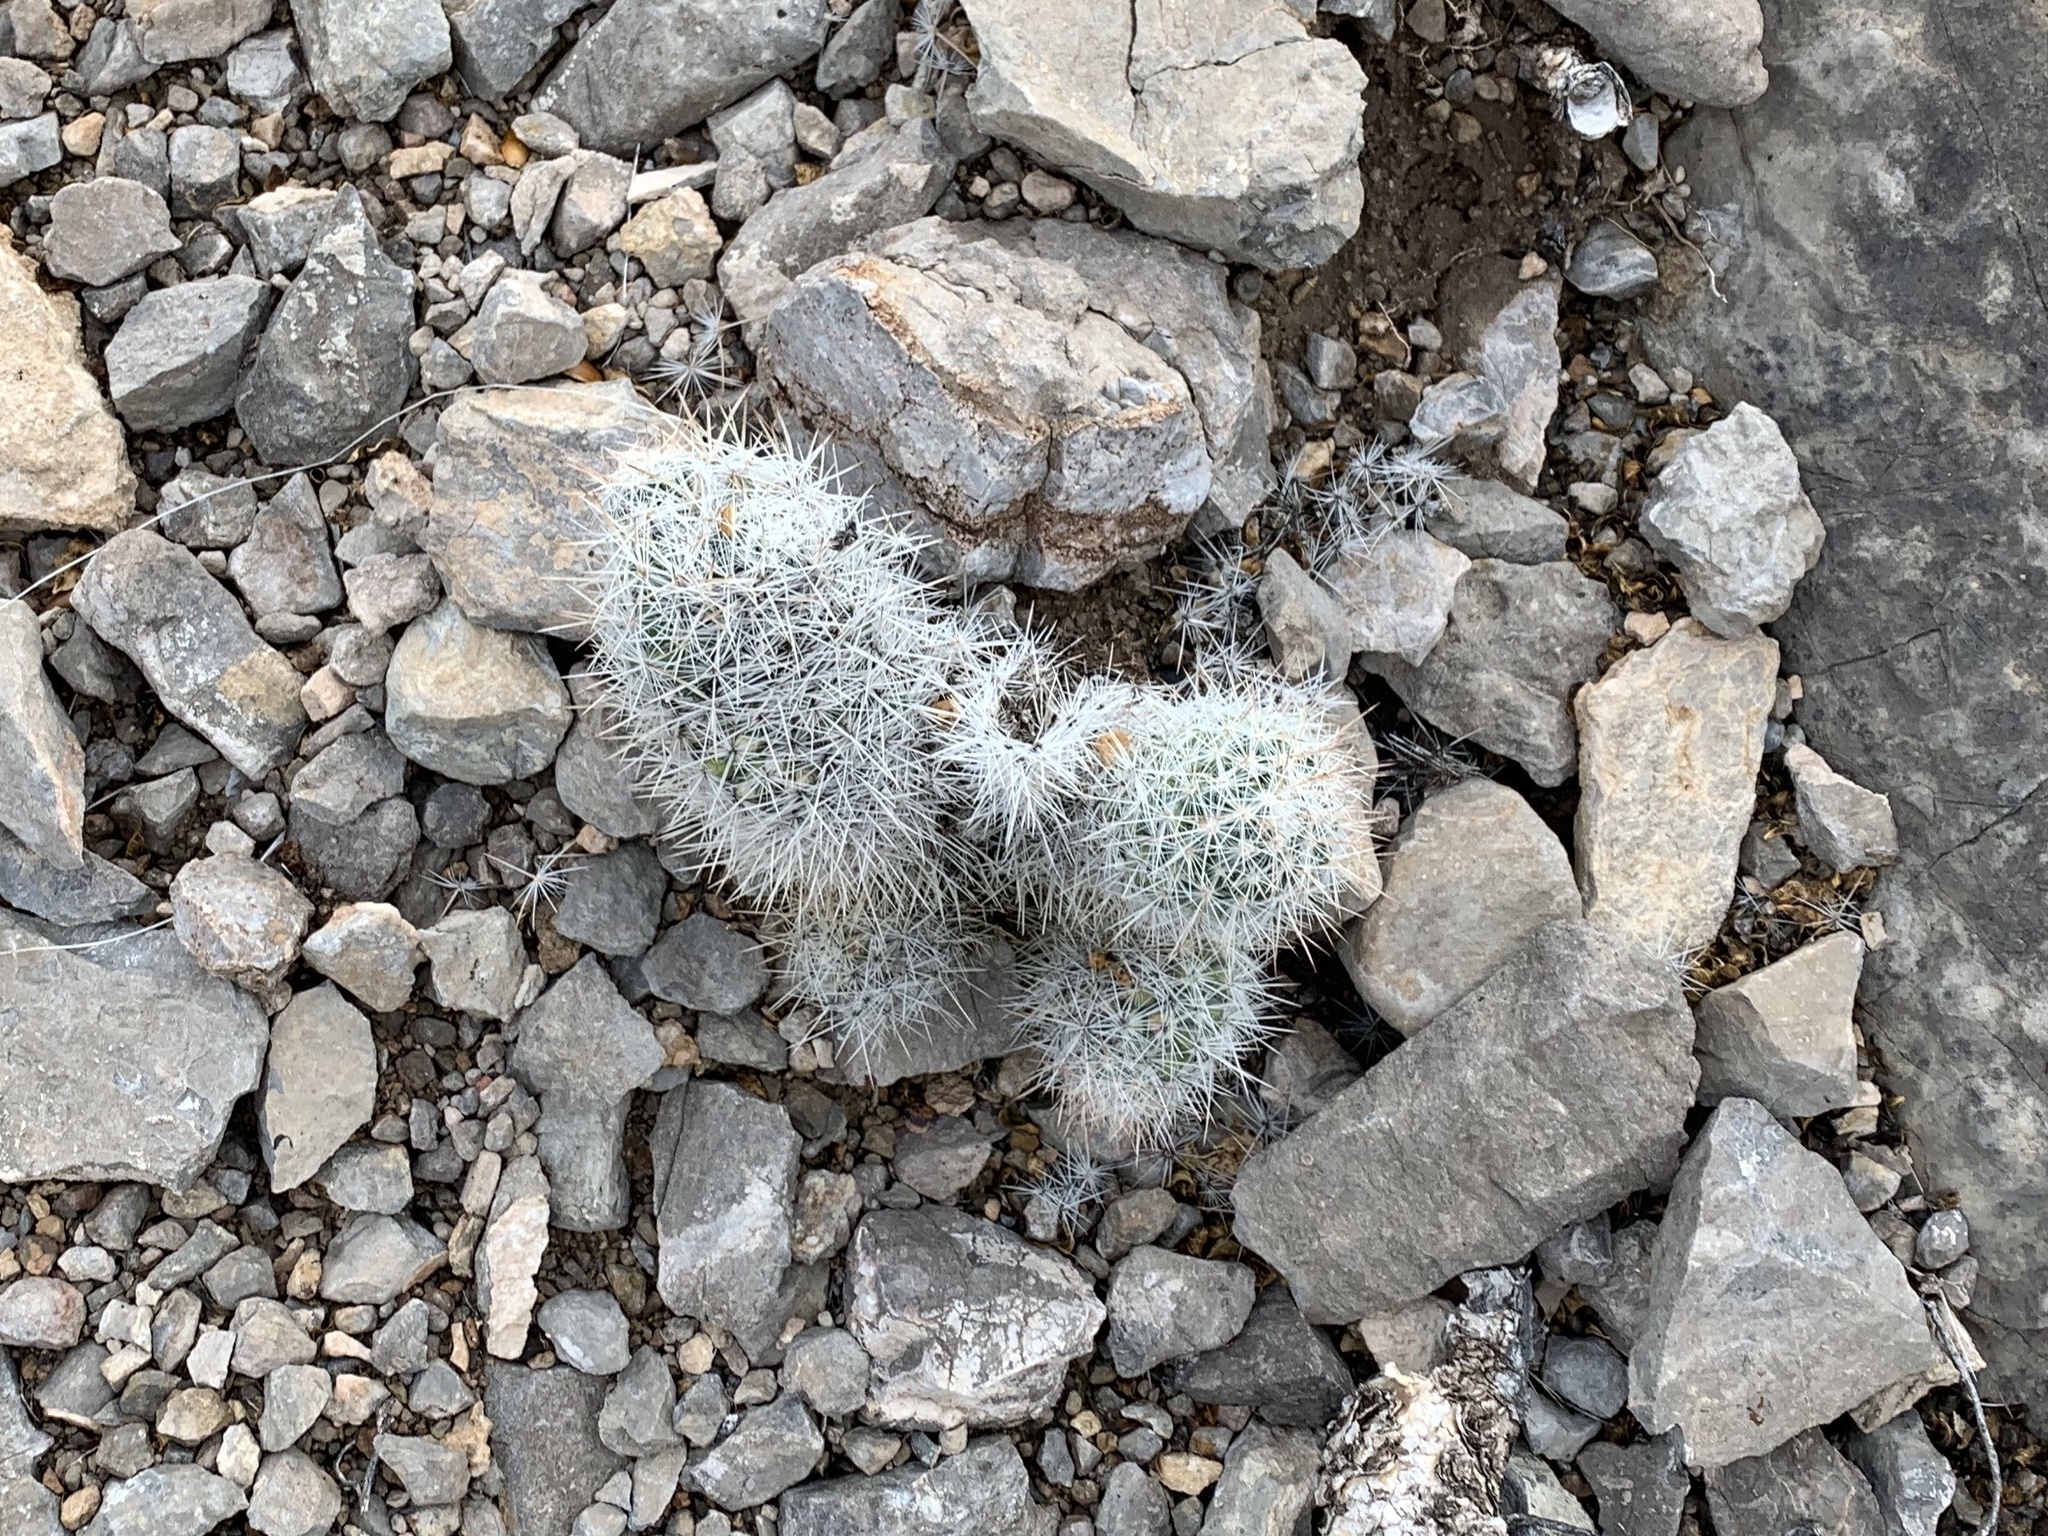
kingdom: Plantae
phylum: Tracheophyta
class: Magnoliopsida
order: Caryophyllales
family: Cactaceae
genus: Pelecyphora
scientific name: Pelecyphora sneedii
